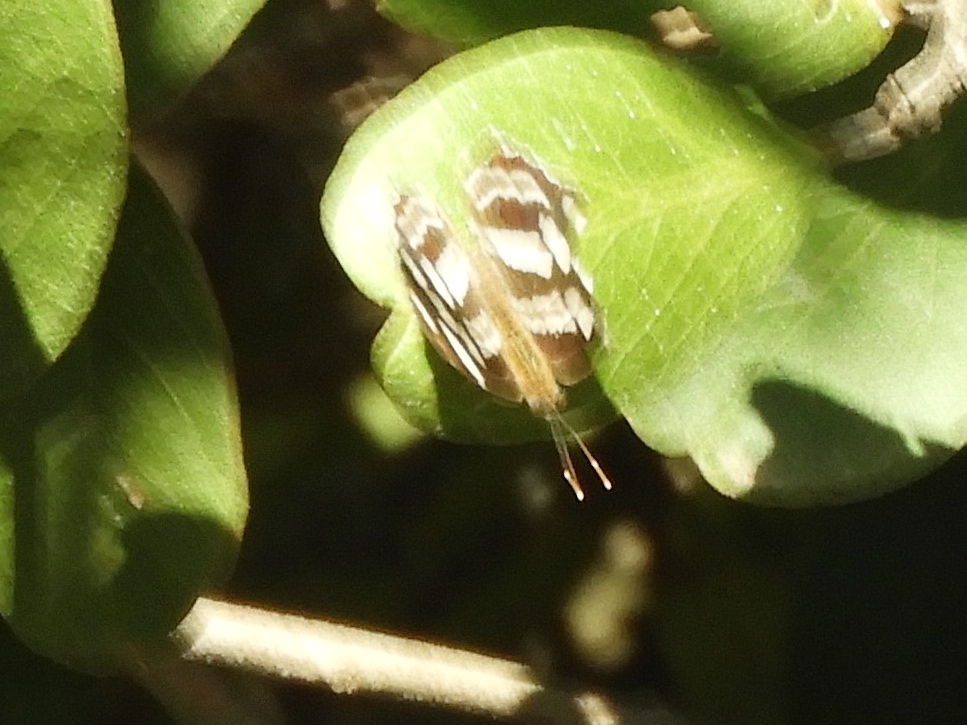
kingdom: Animalia
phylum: Arthropoda
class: Insecta
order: Lepidoptera
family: Nymphalidae
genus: Dynamine
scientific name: Dynamine mylitta
